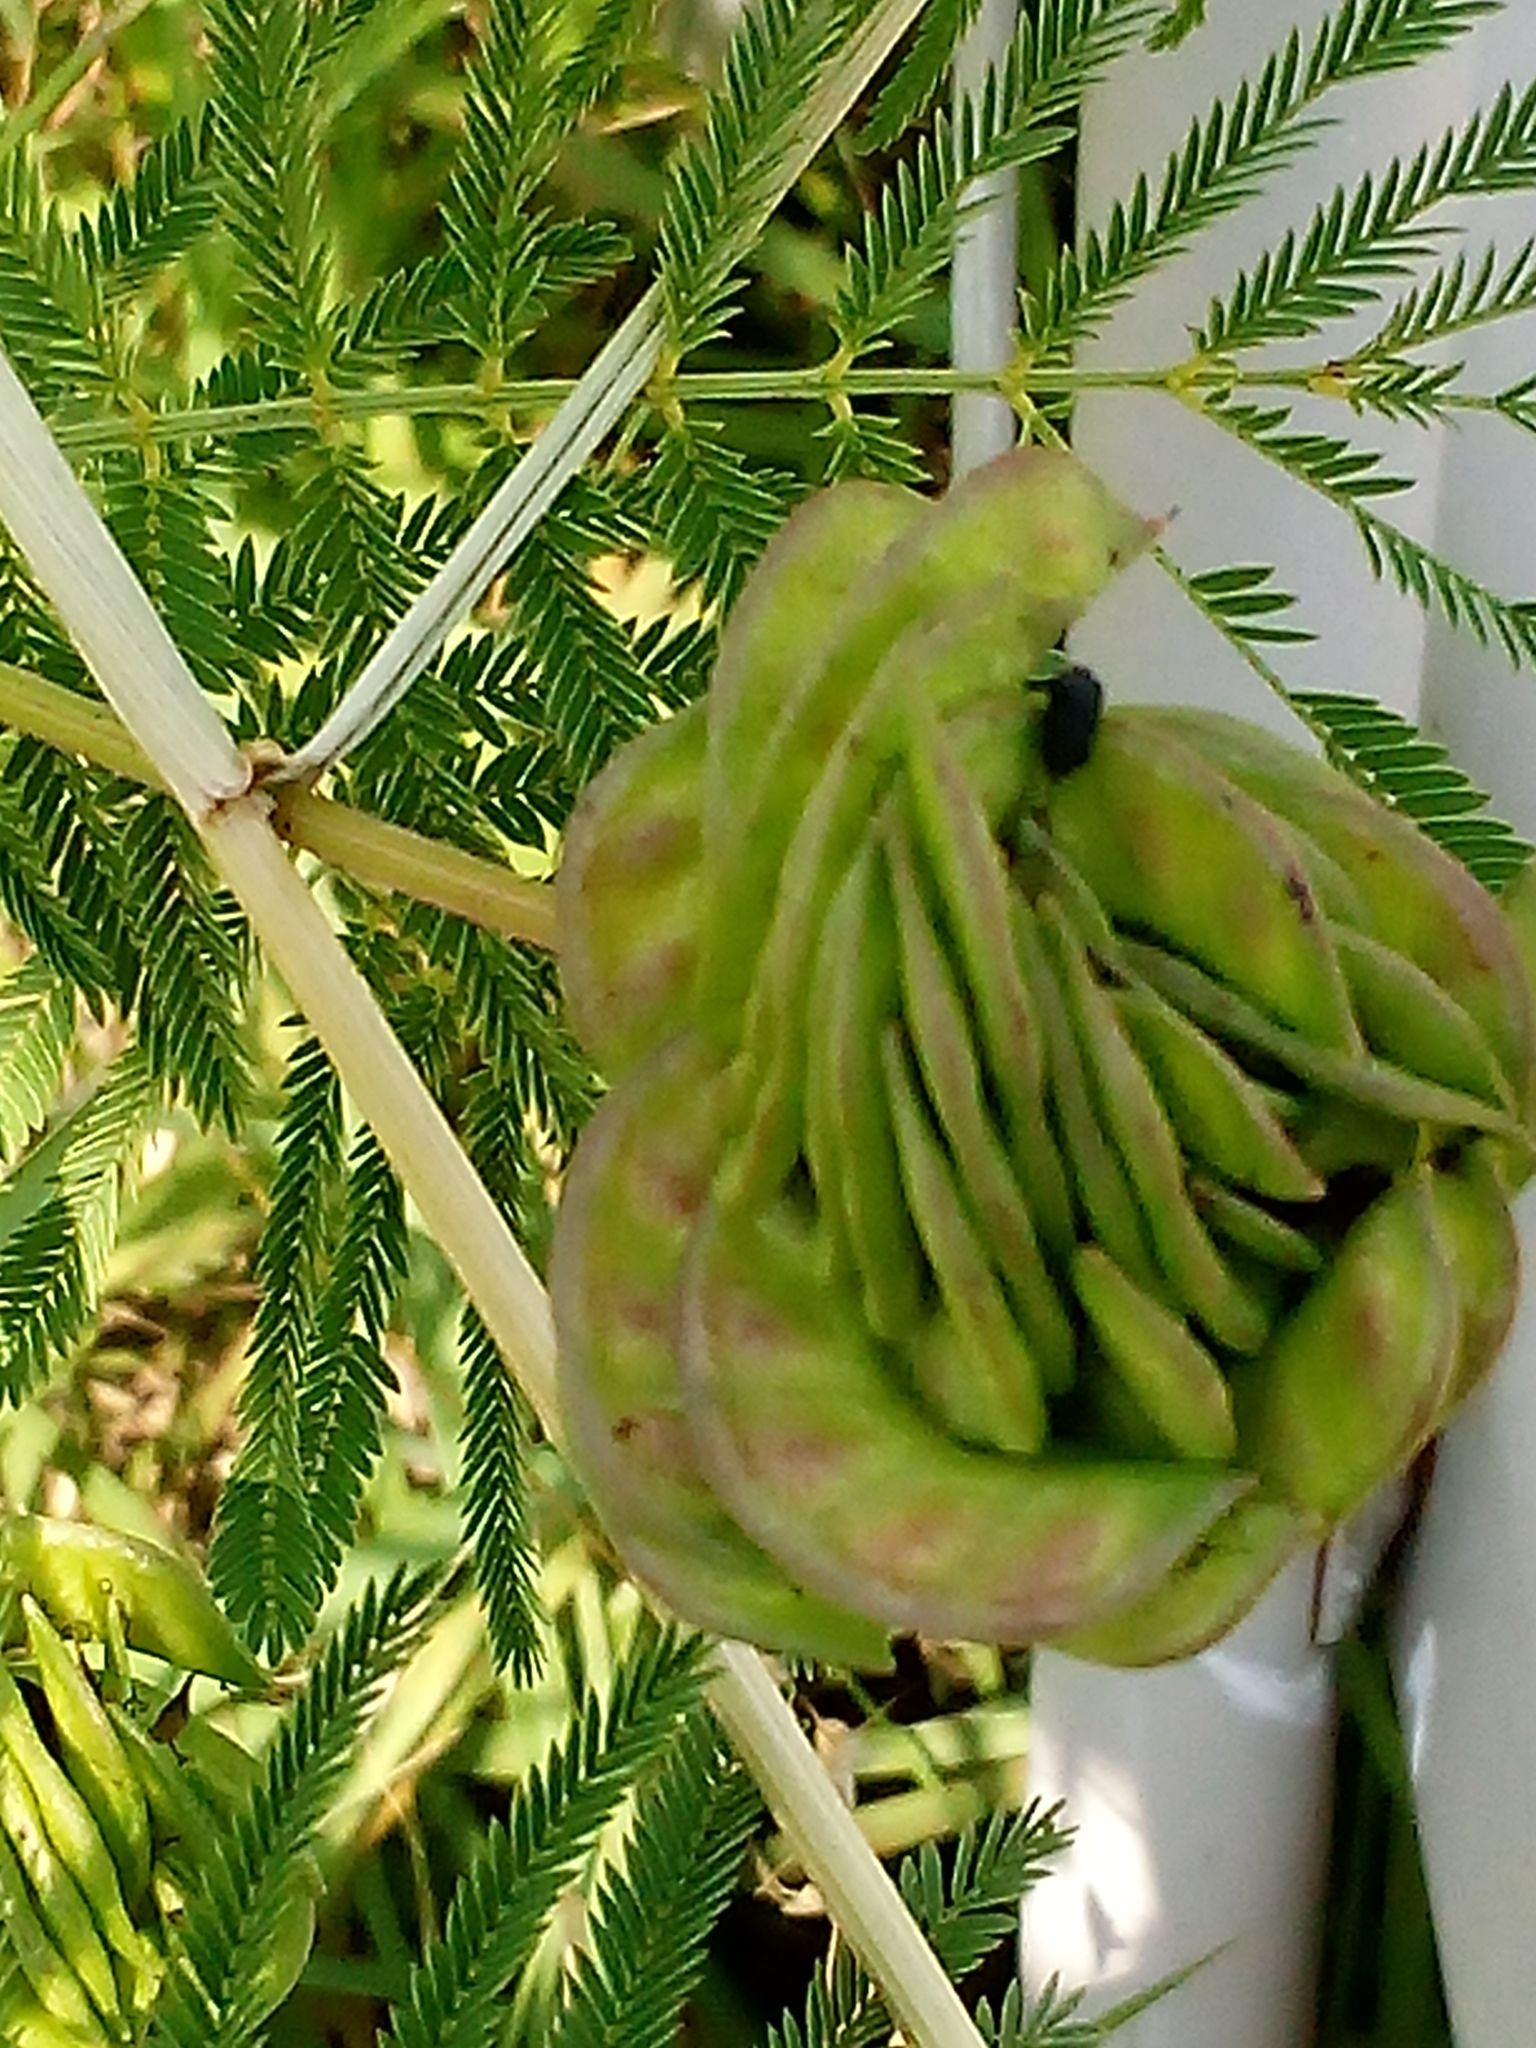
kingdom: Plantae
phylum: Tracheophyta
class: Magnoliopsida
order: Fabales
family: Fabaceae
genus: Desmanthus
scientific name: Desmanthus illinoensis
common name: Illinois bundle-flower
